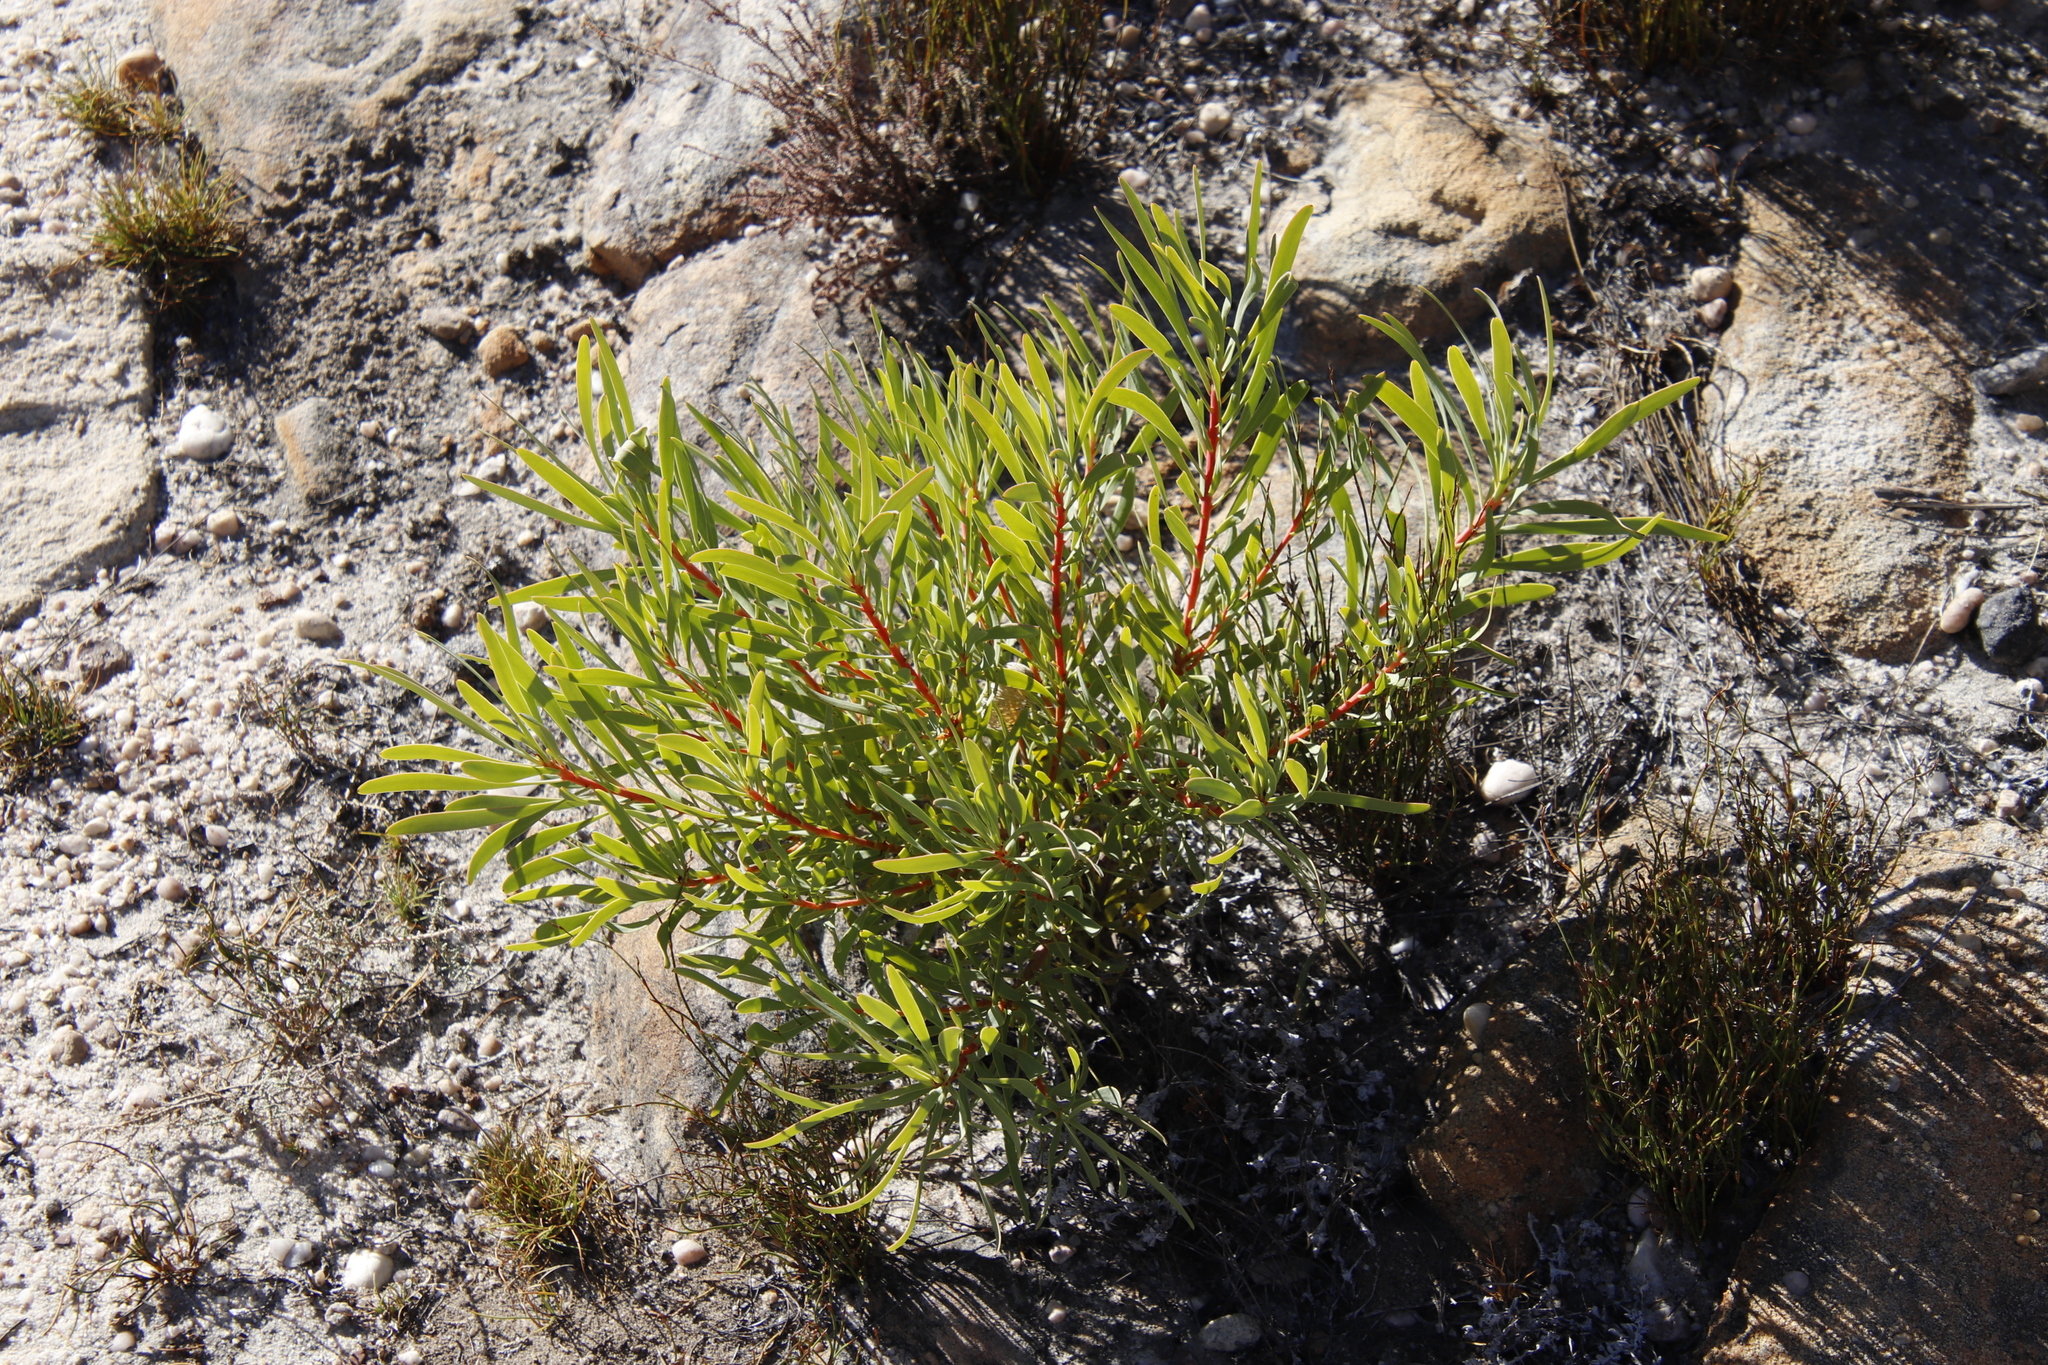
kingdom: Plantae
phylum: Tracheophyta
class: Magnoliopsida
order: Proteales
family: Proteaceae
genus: Protea
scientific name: Protea repens
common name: Sugarbush
